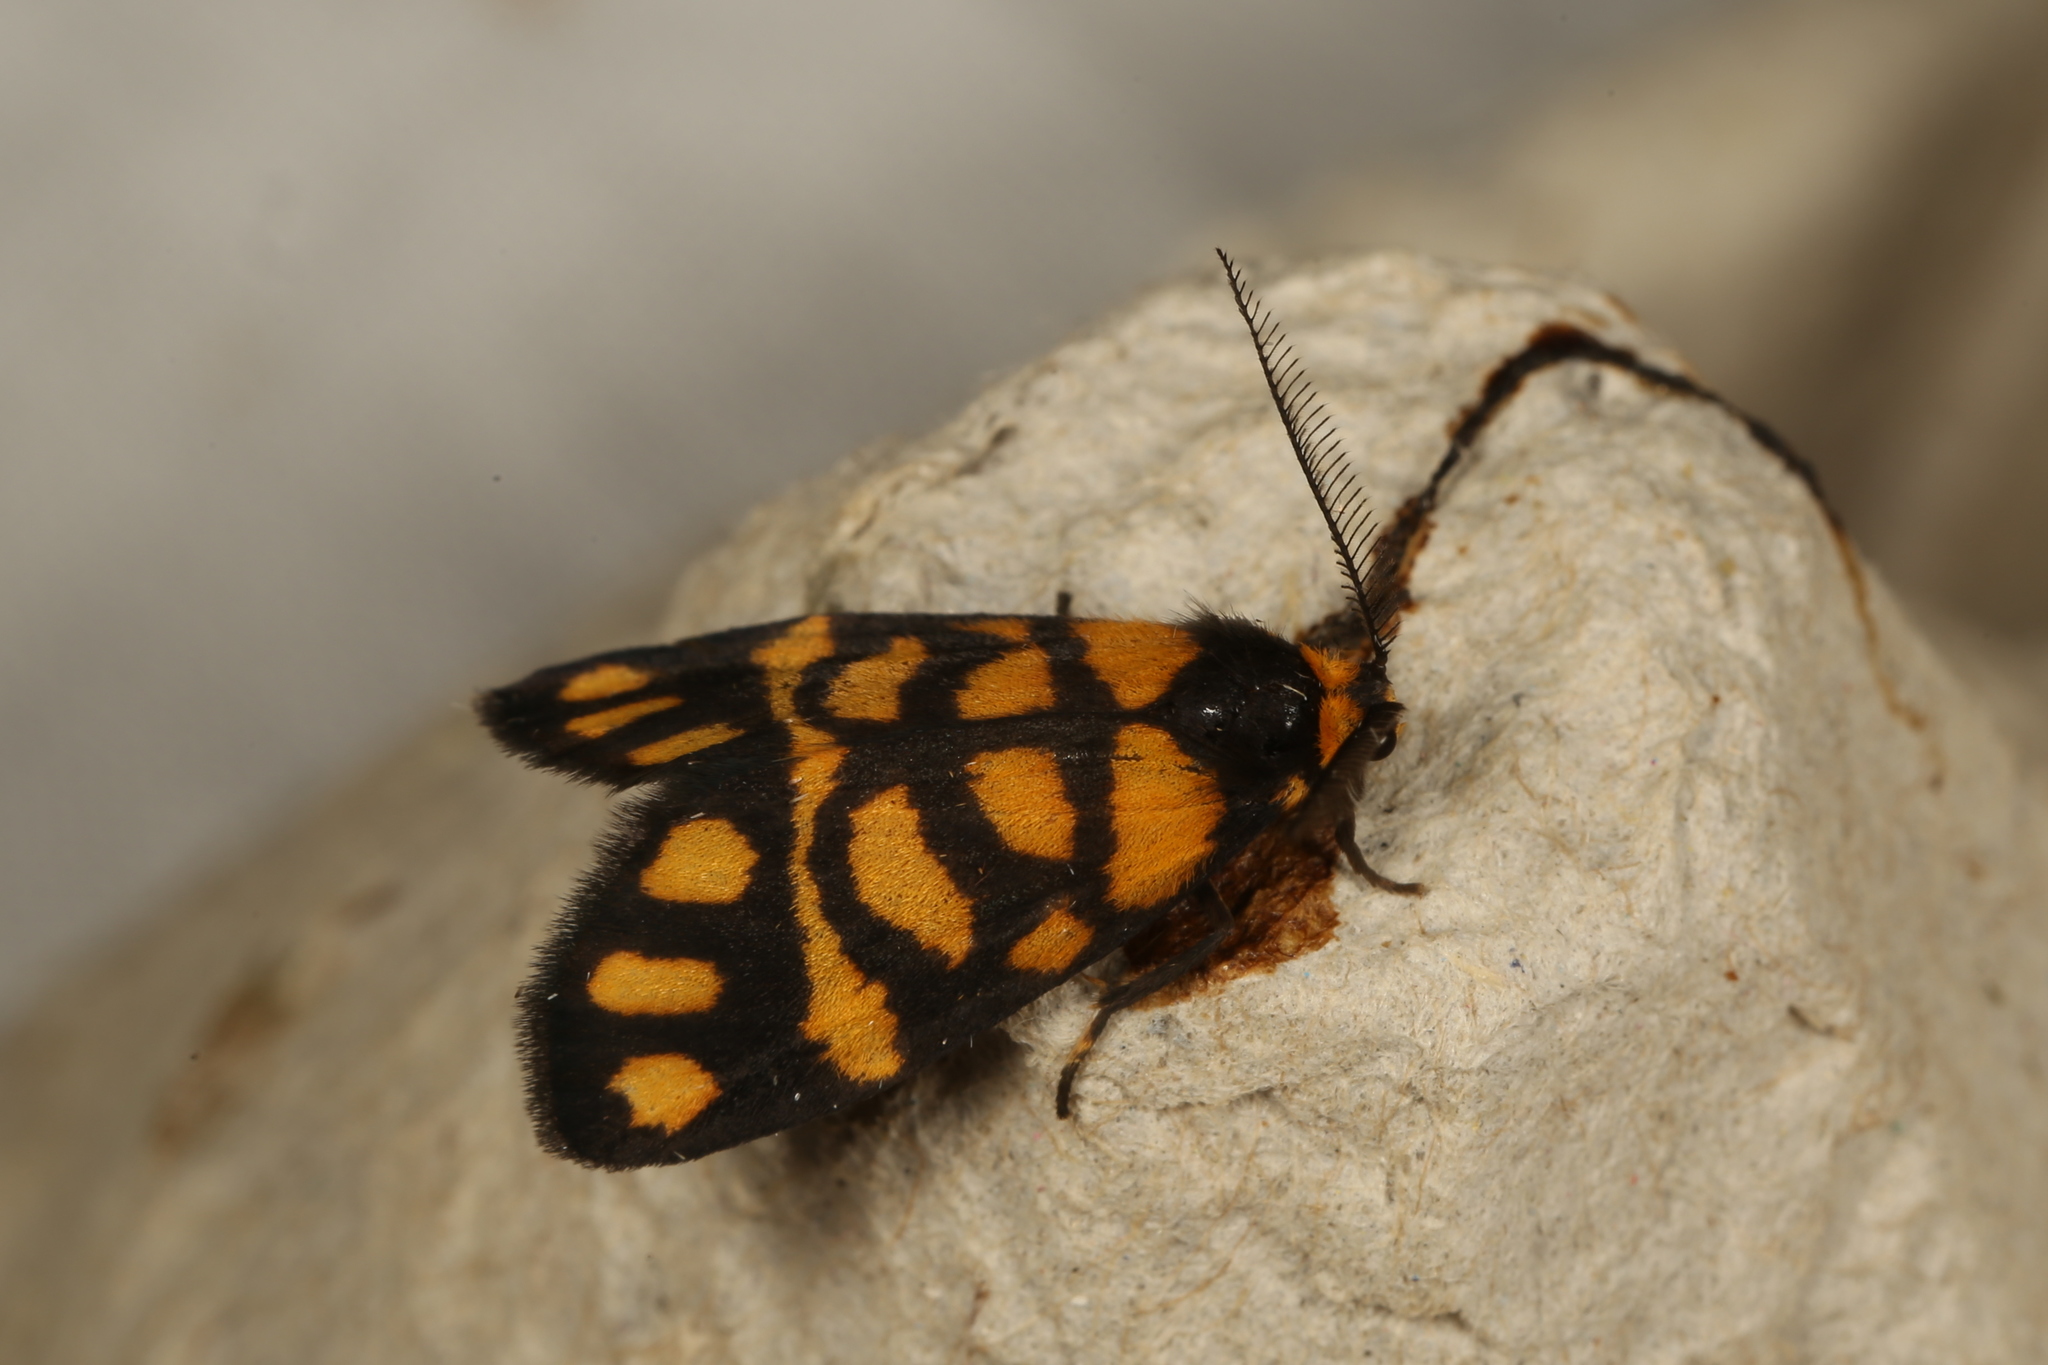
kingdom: Animalia
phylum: Arthropoda
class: Insecta
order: Lepidoptera
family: Erebidae
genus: Asura
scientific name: Asura lydia
